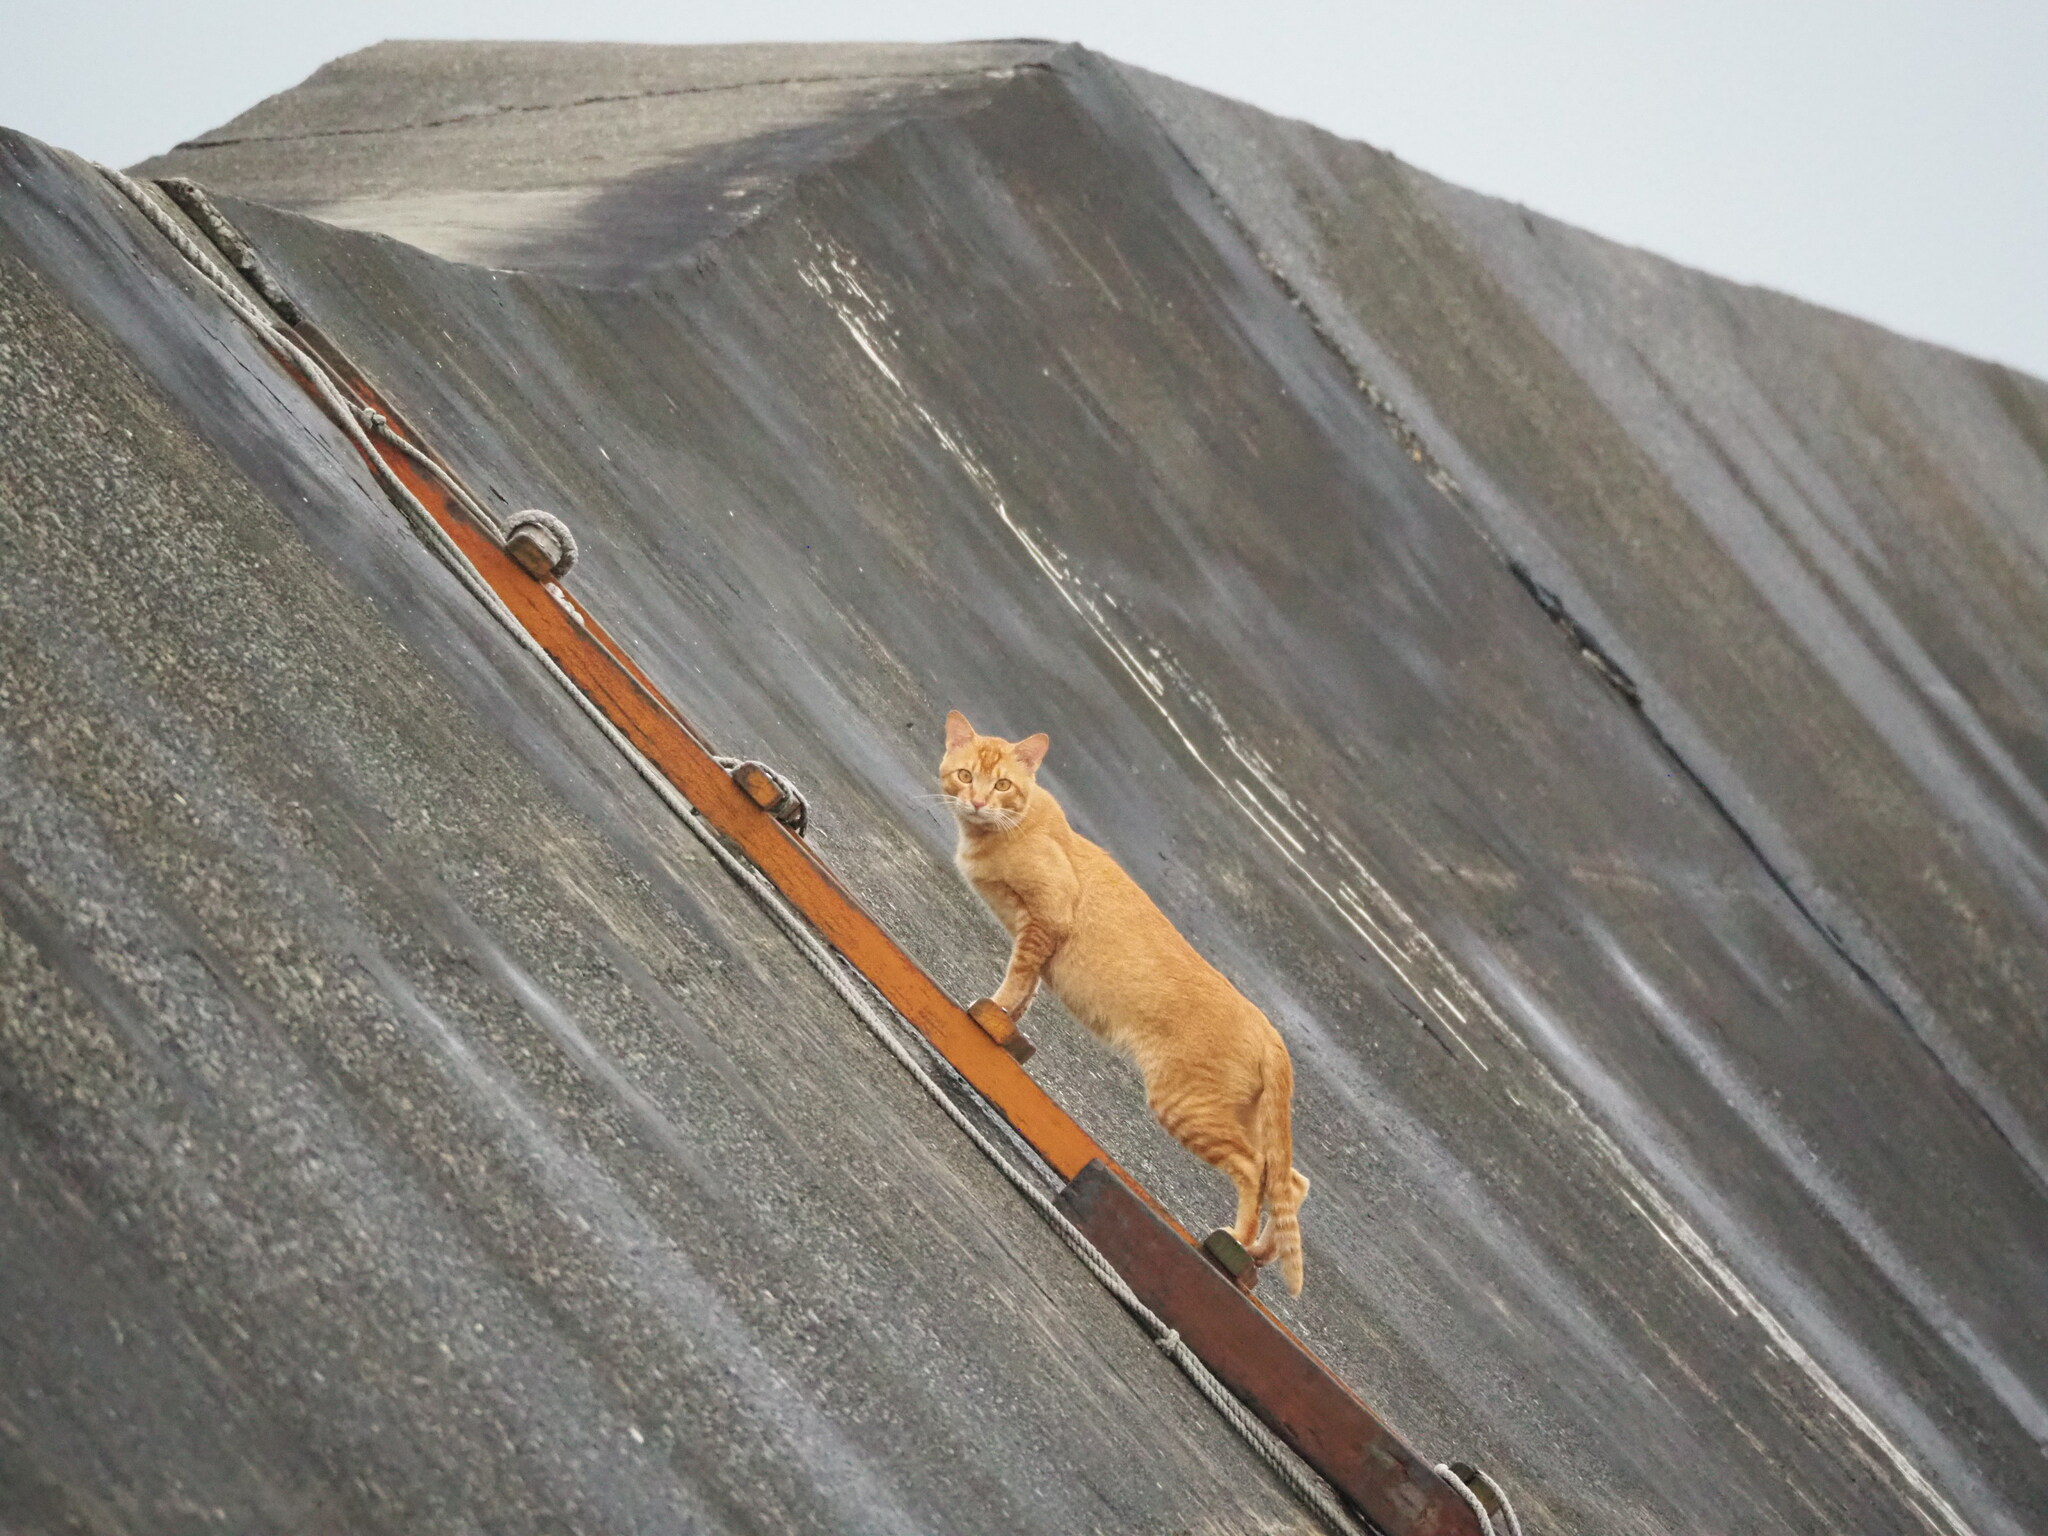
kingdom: Animalia
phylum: Chordata
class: Mammalia
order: Carnivora
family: Felidae
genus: Felis
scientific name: Felis catus
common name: Domestic cat
